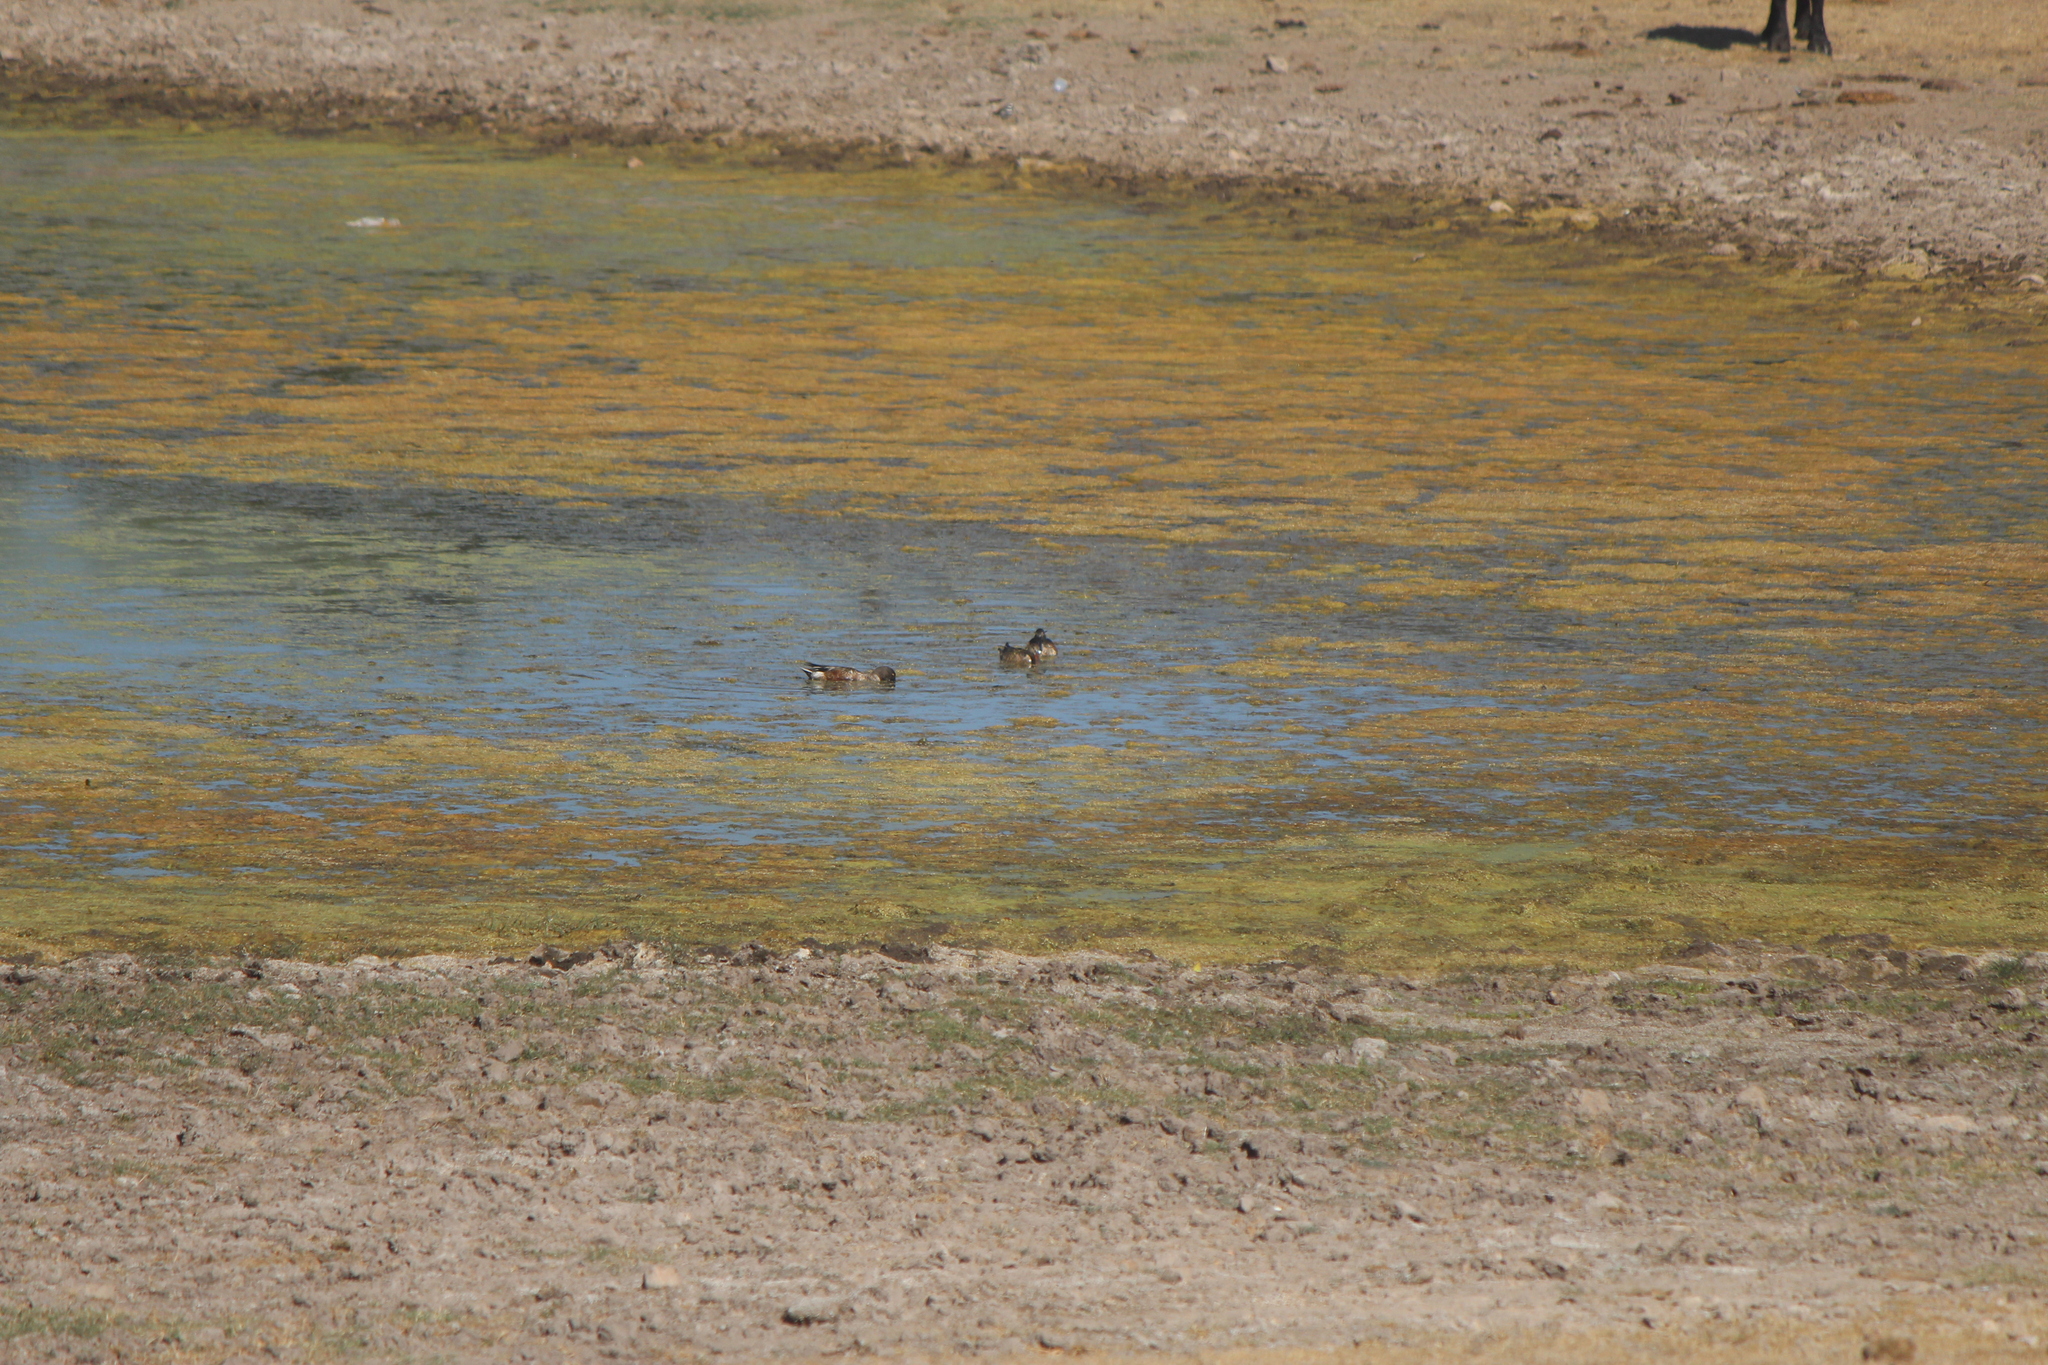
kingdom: Animalia
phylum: Chordata
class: Aves
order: Anseriformes
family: Anatidae
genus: Spatula
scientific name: Spatula clypeata
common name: Northern shoveler
